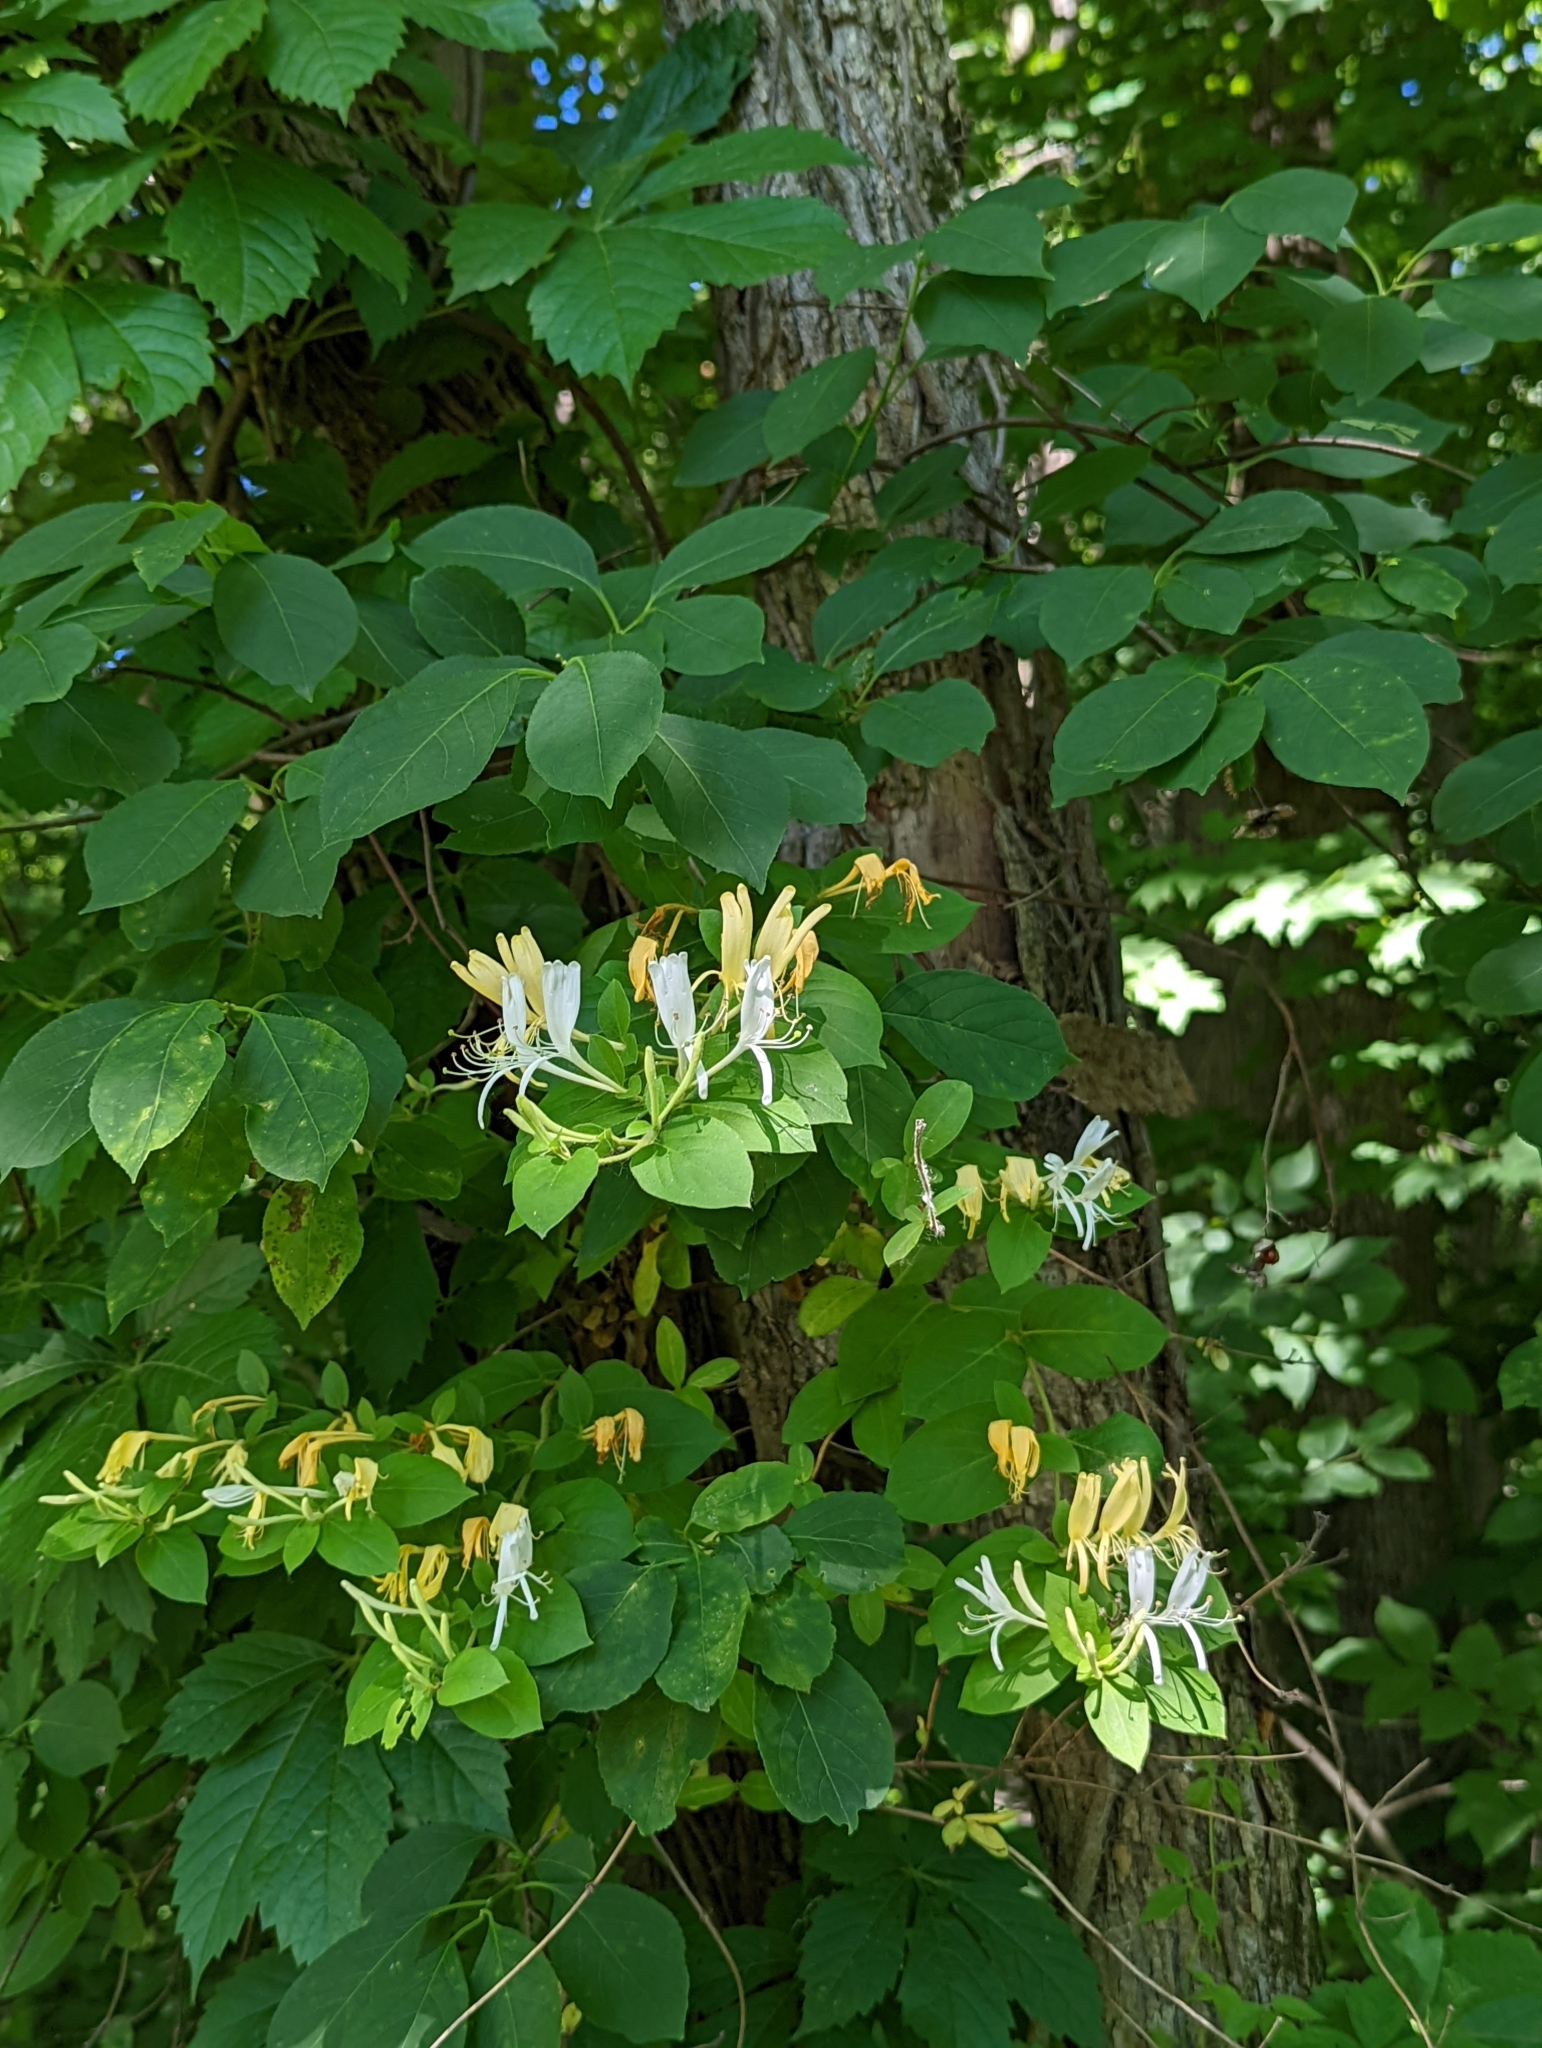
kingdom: Plantae
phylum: Tracheophyta
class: Magnoliopsida
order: Dipsacales
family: Caprifoliaceae
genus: Lonicera
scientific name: Lonicera japonica
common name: Japanese honeysuckle
